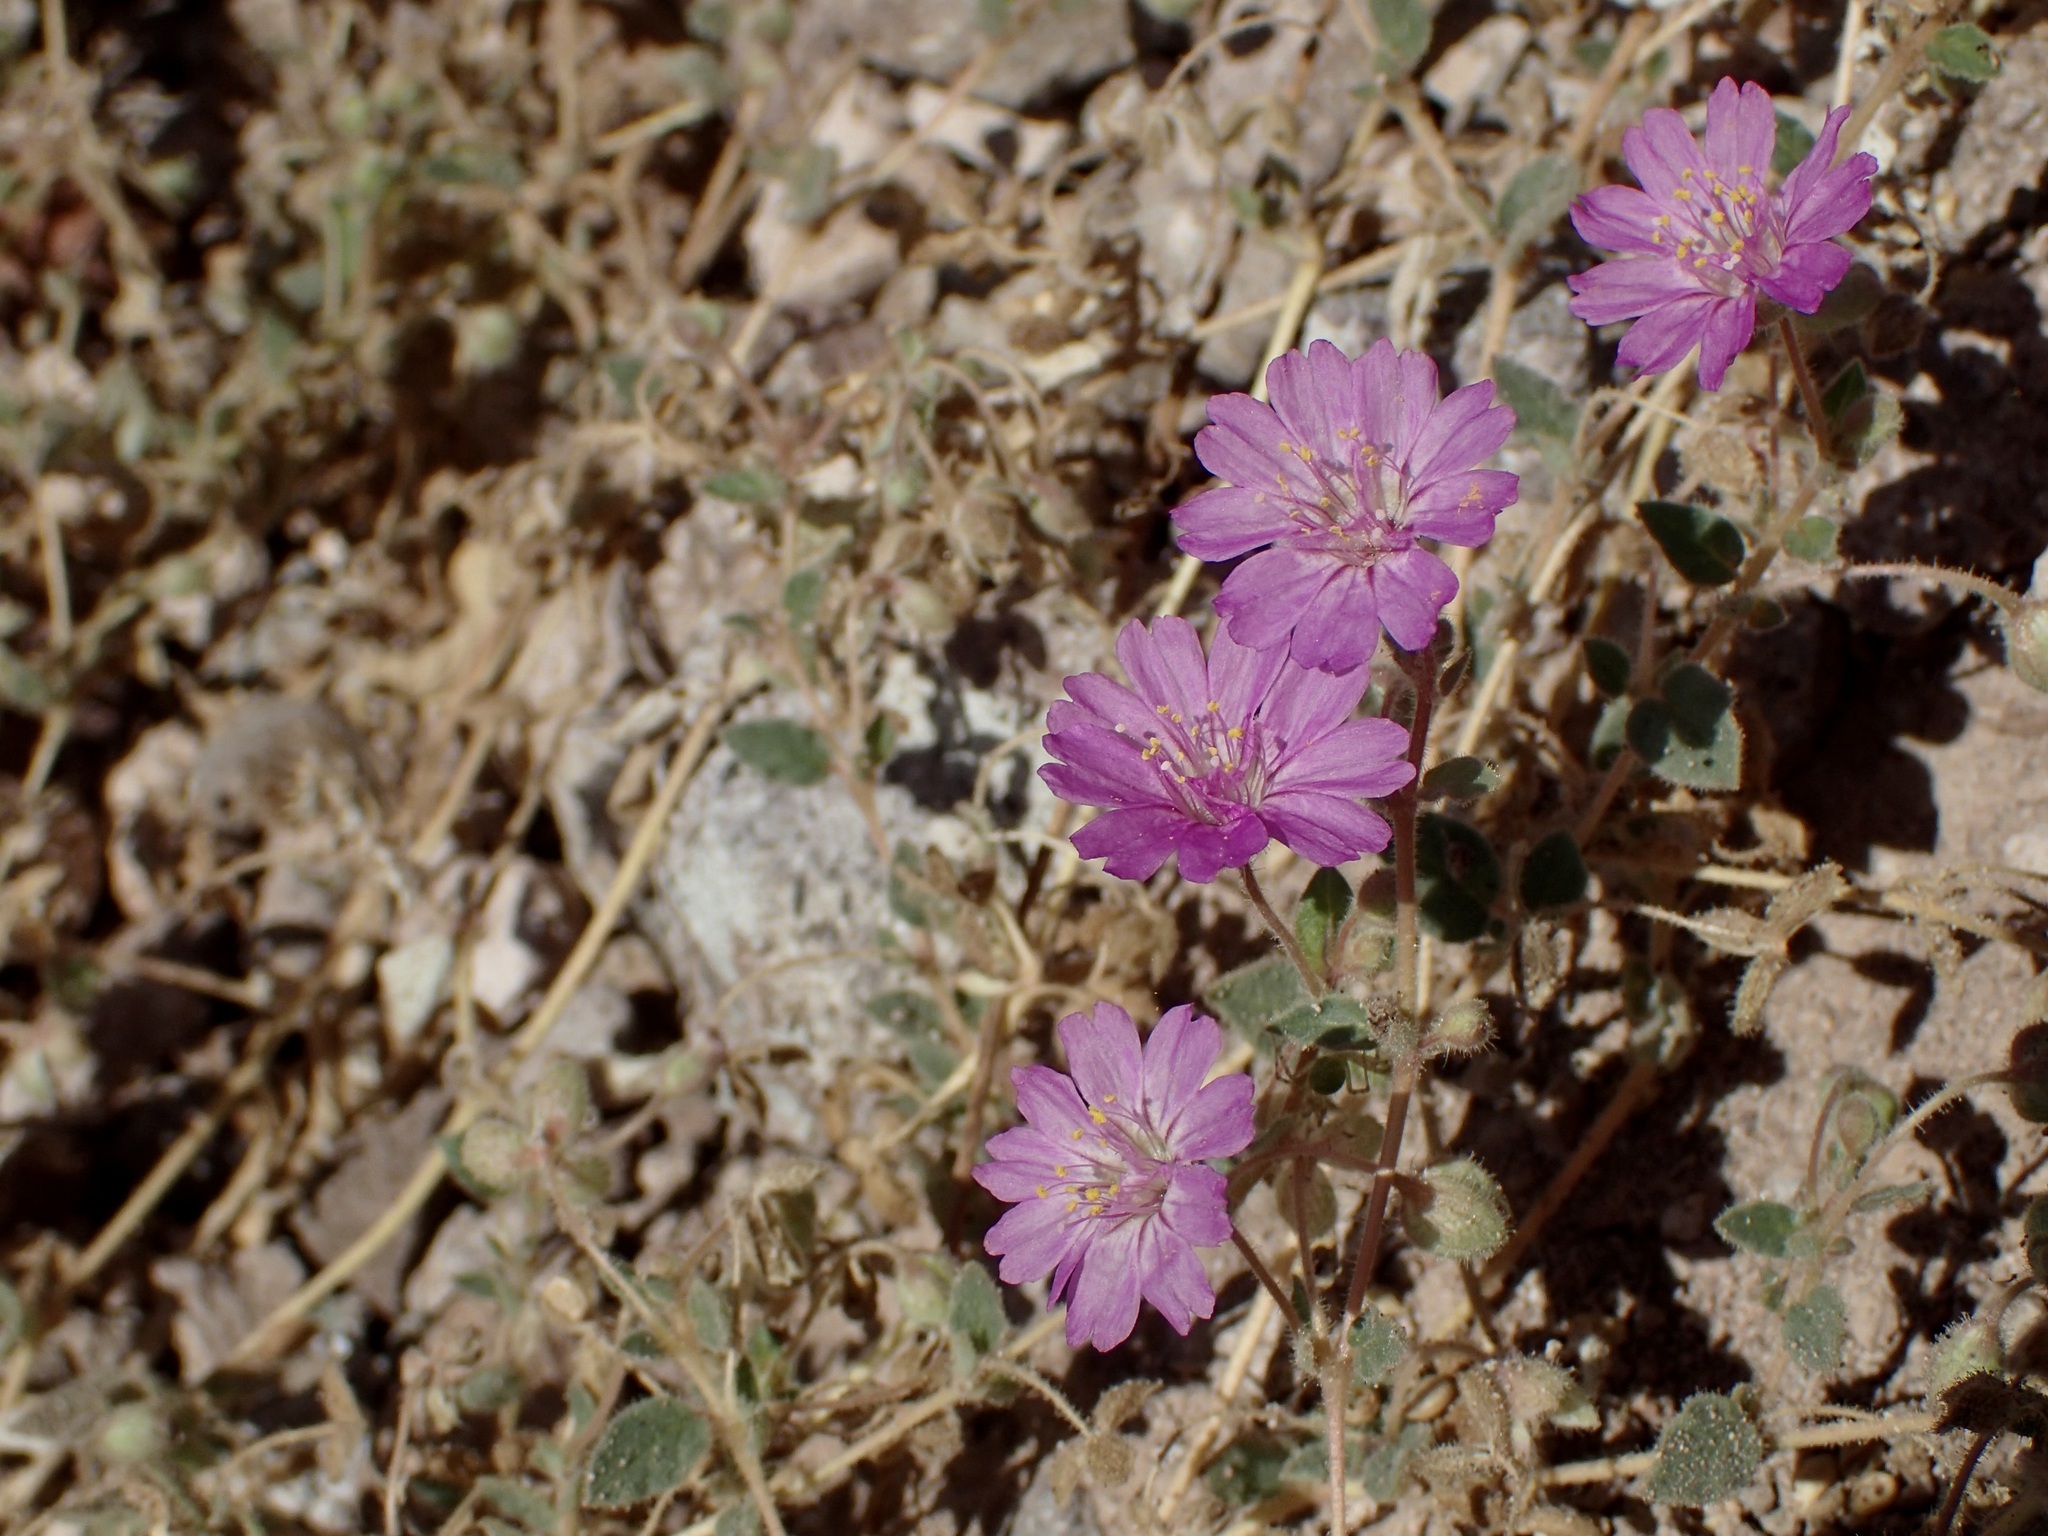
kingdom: Plantae
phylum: Tracheophyta
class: Magnoliopsida
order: Caryophyllales
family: Nyctaginaceae
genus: Allionia
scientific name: Allionia incarnata
